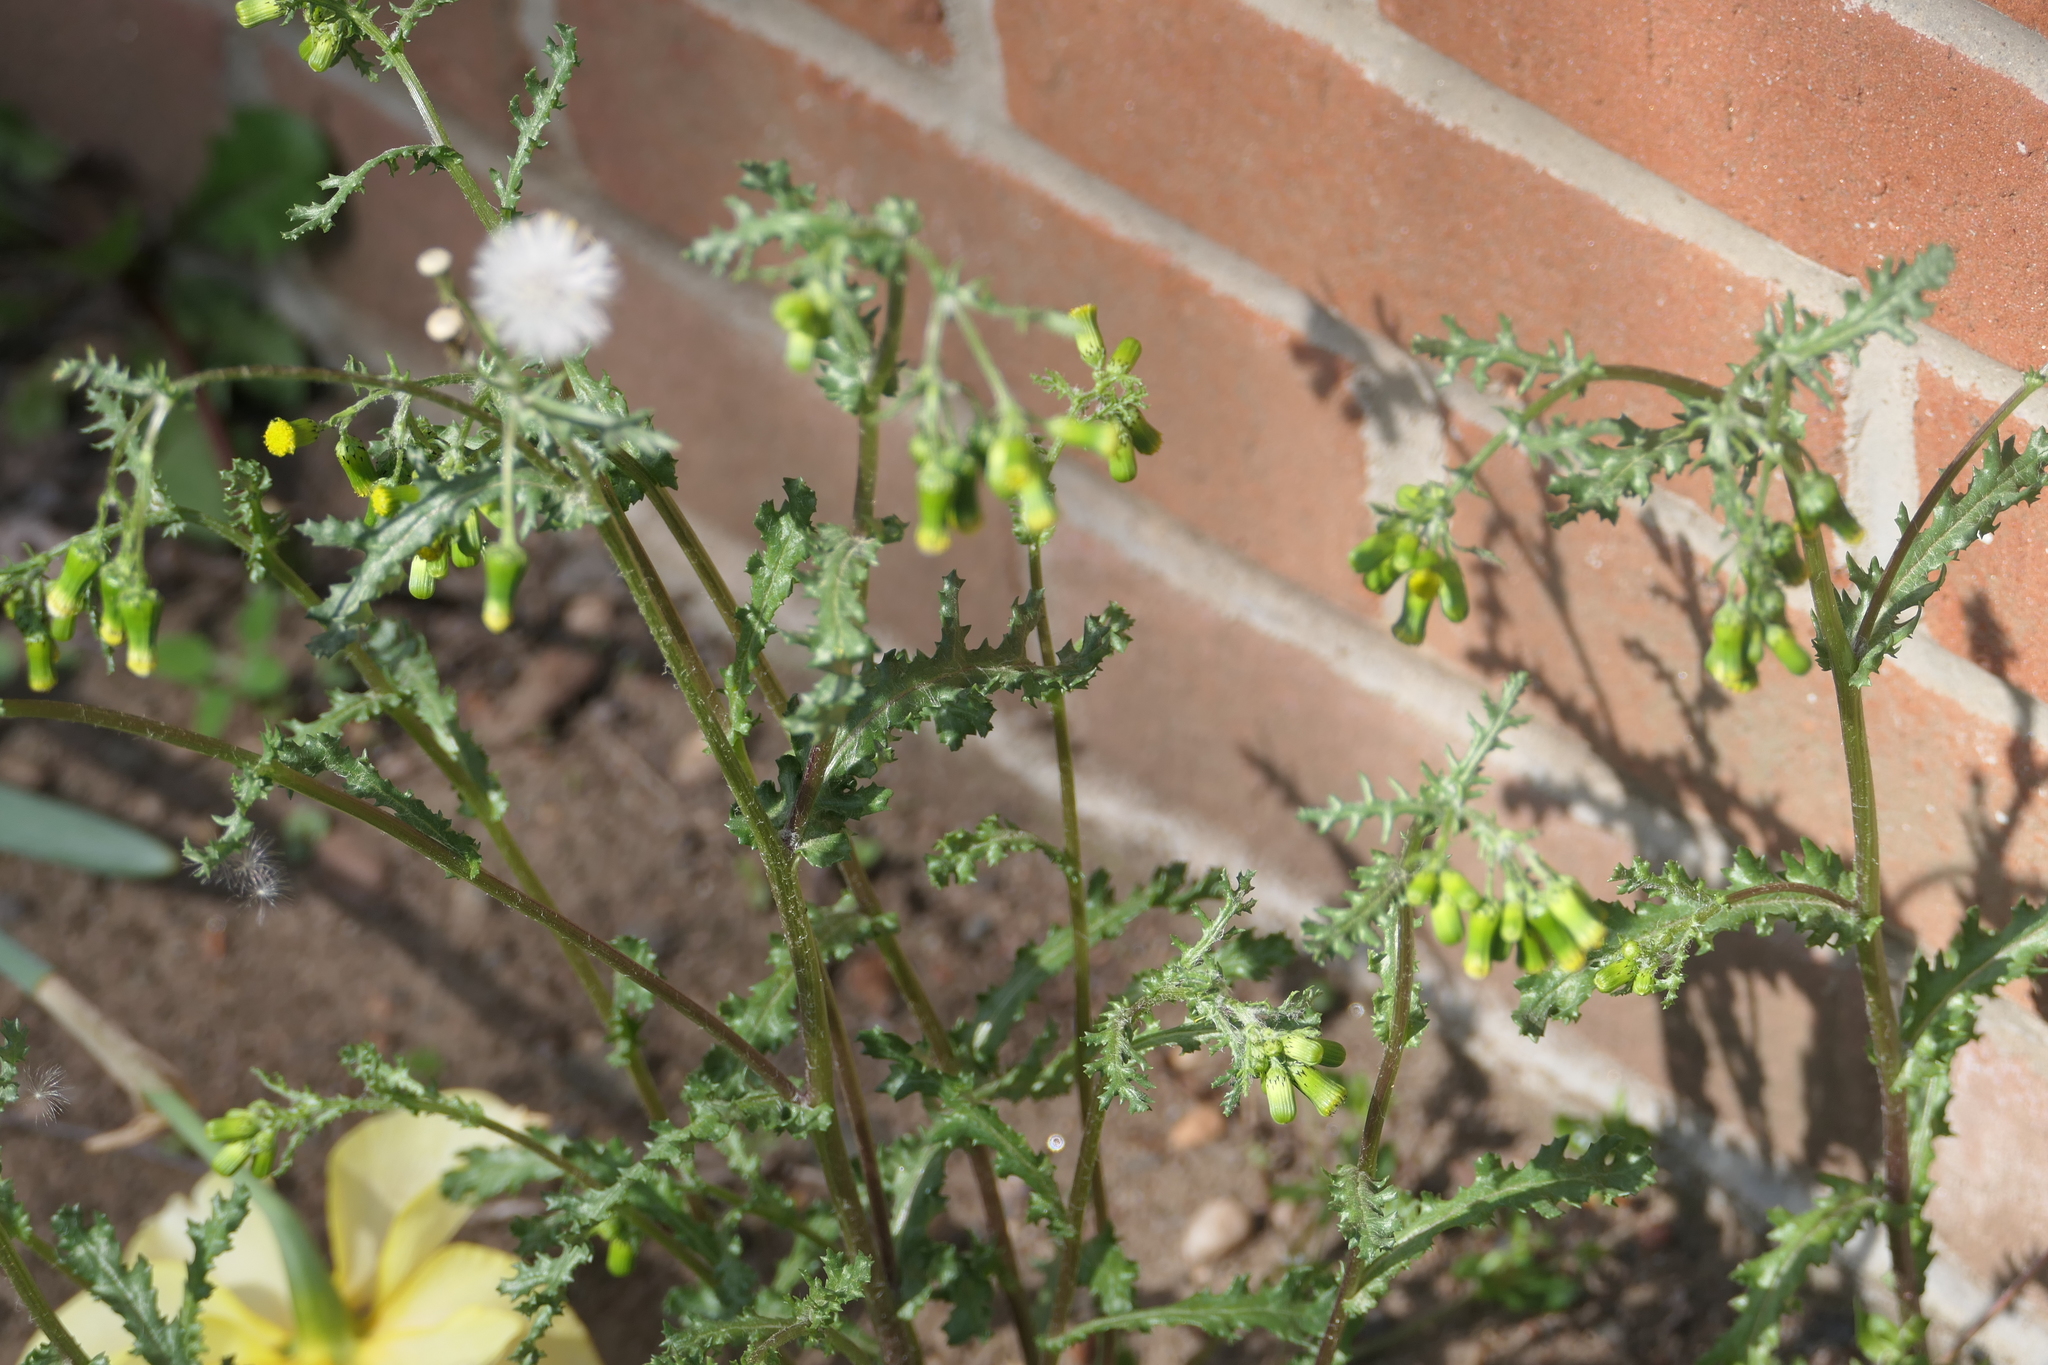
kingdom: Plantae
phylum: Tracheophyta
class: Magnoliopsida
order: Asterales
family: Asteraceae
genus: Senecio
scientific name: Senecio vulgaris
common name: Old-man-in-the-spring
